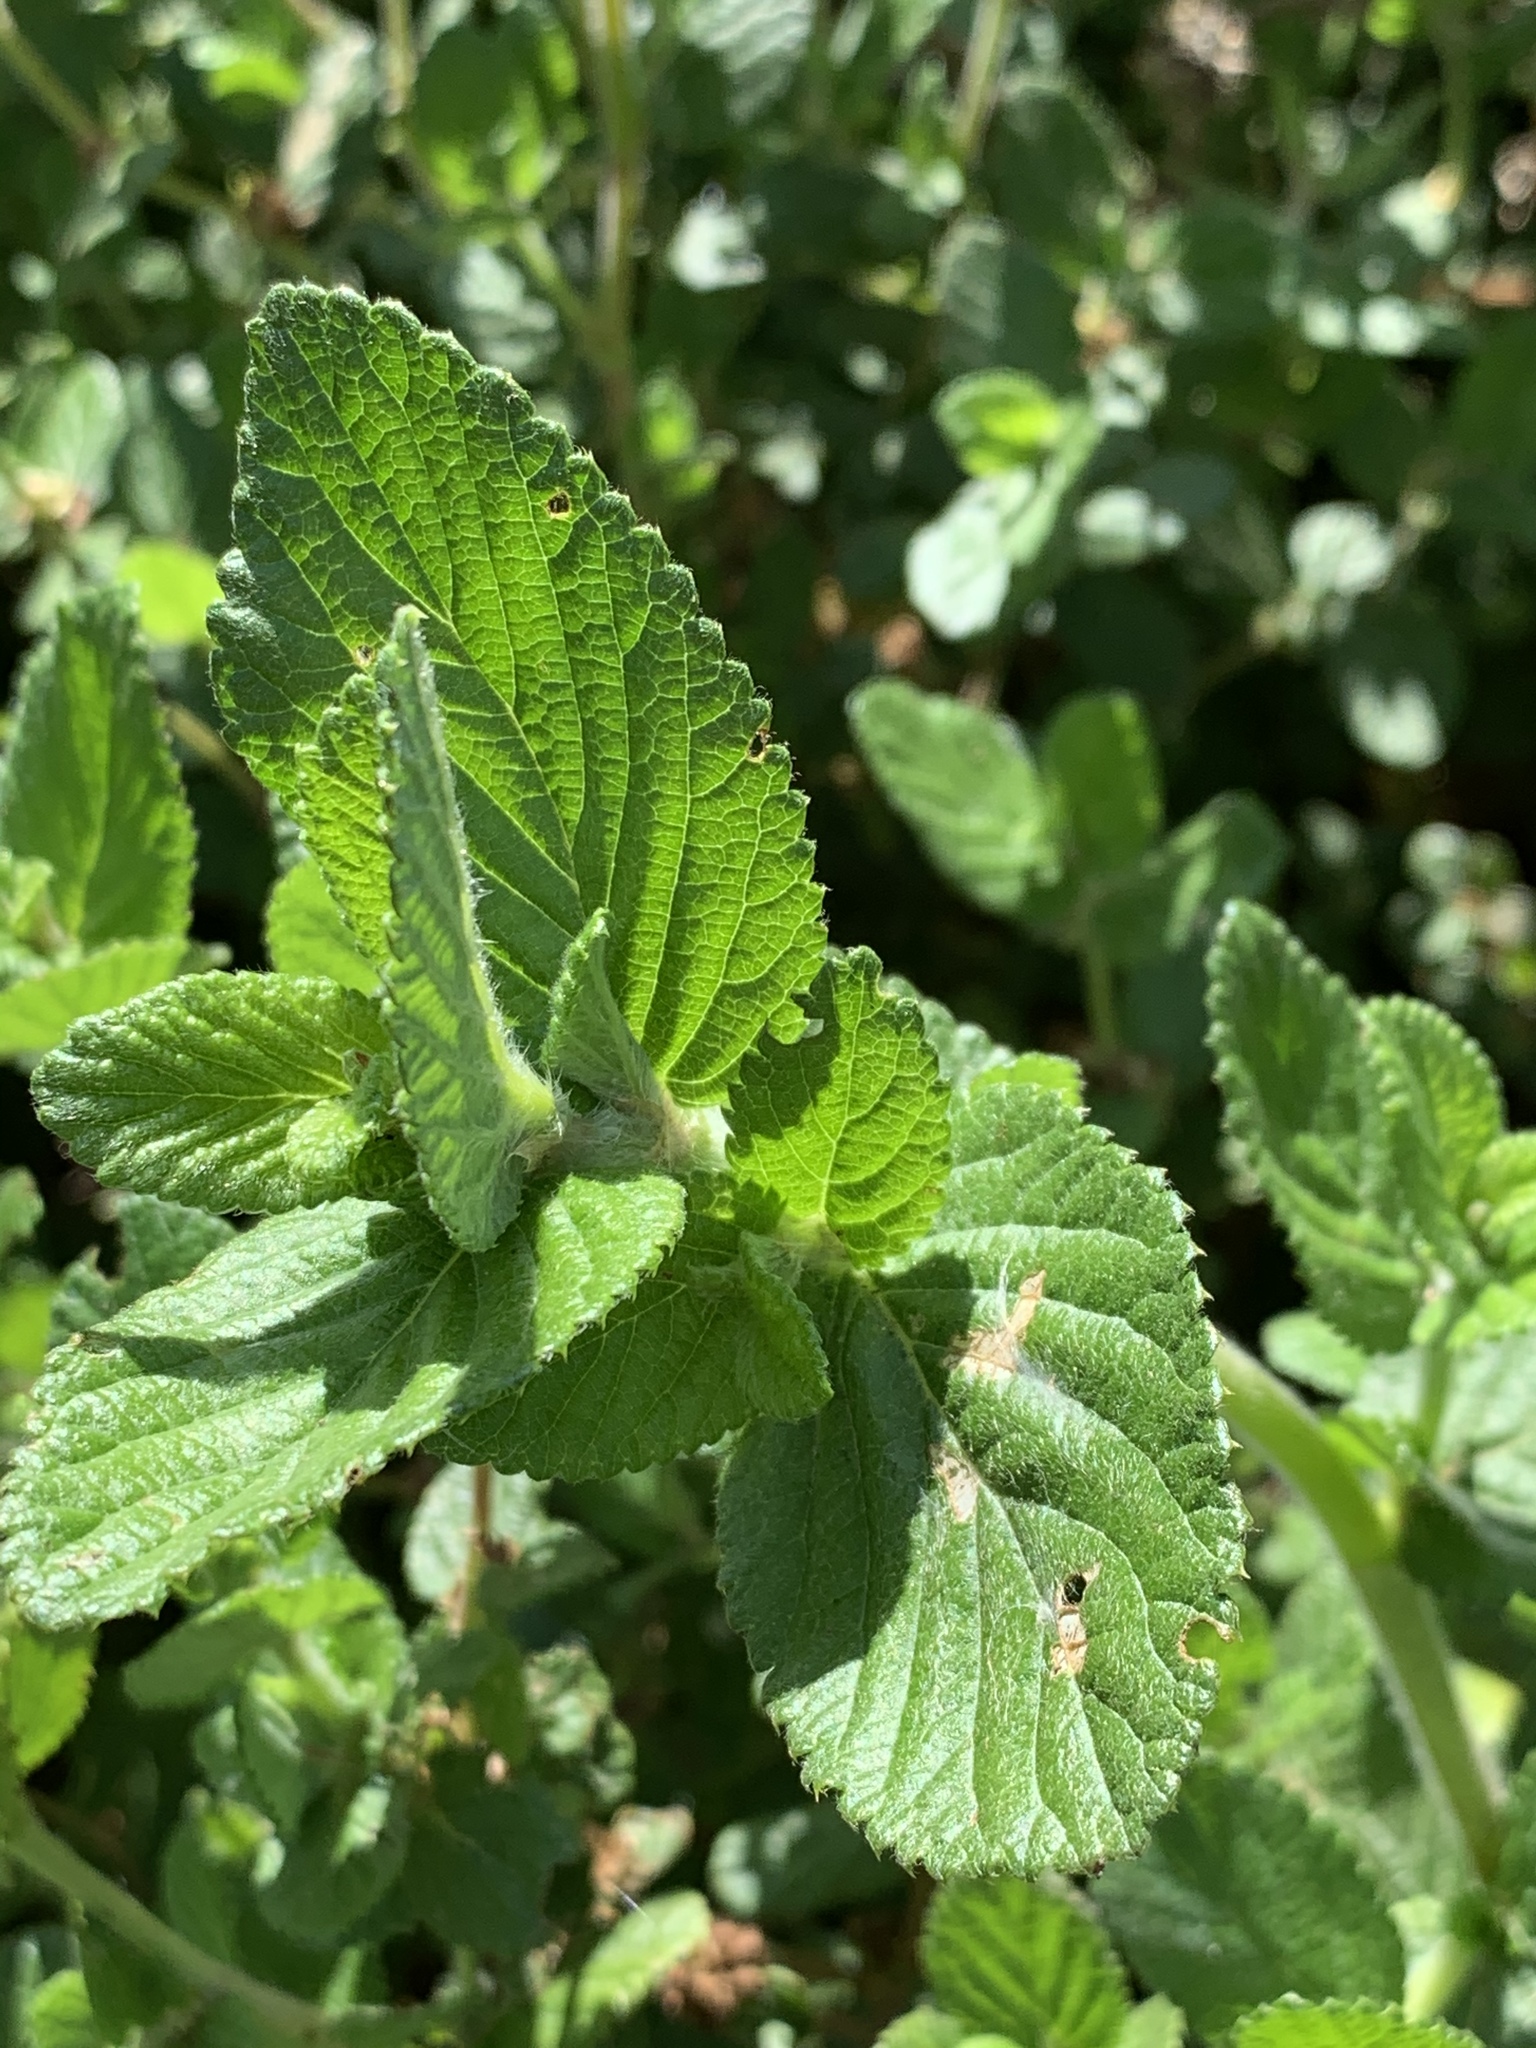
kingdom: Plantae
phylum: Tracheophyta
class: Magnoliopsida
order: Rosales
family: Rosaceae
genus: Cliffortia
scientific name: Cliffortia odorata
